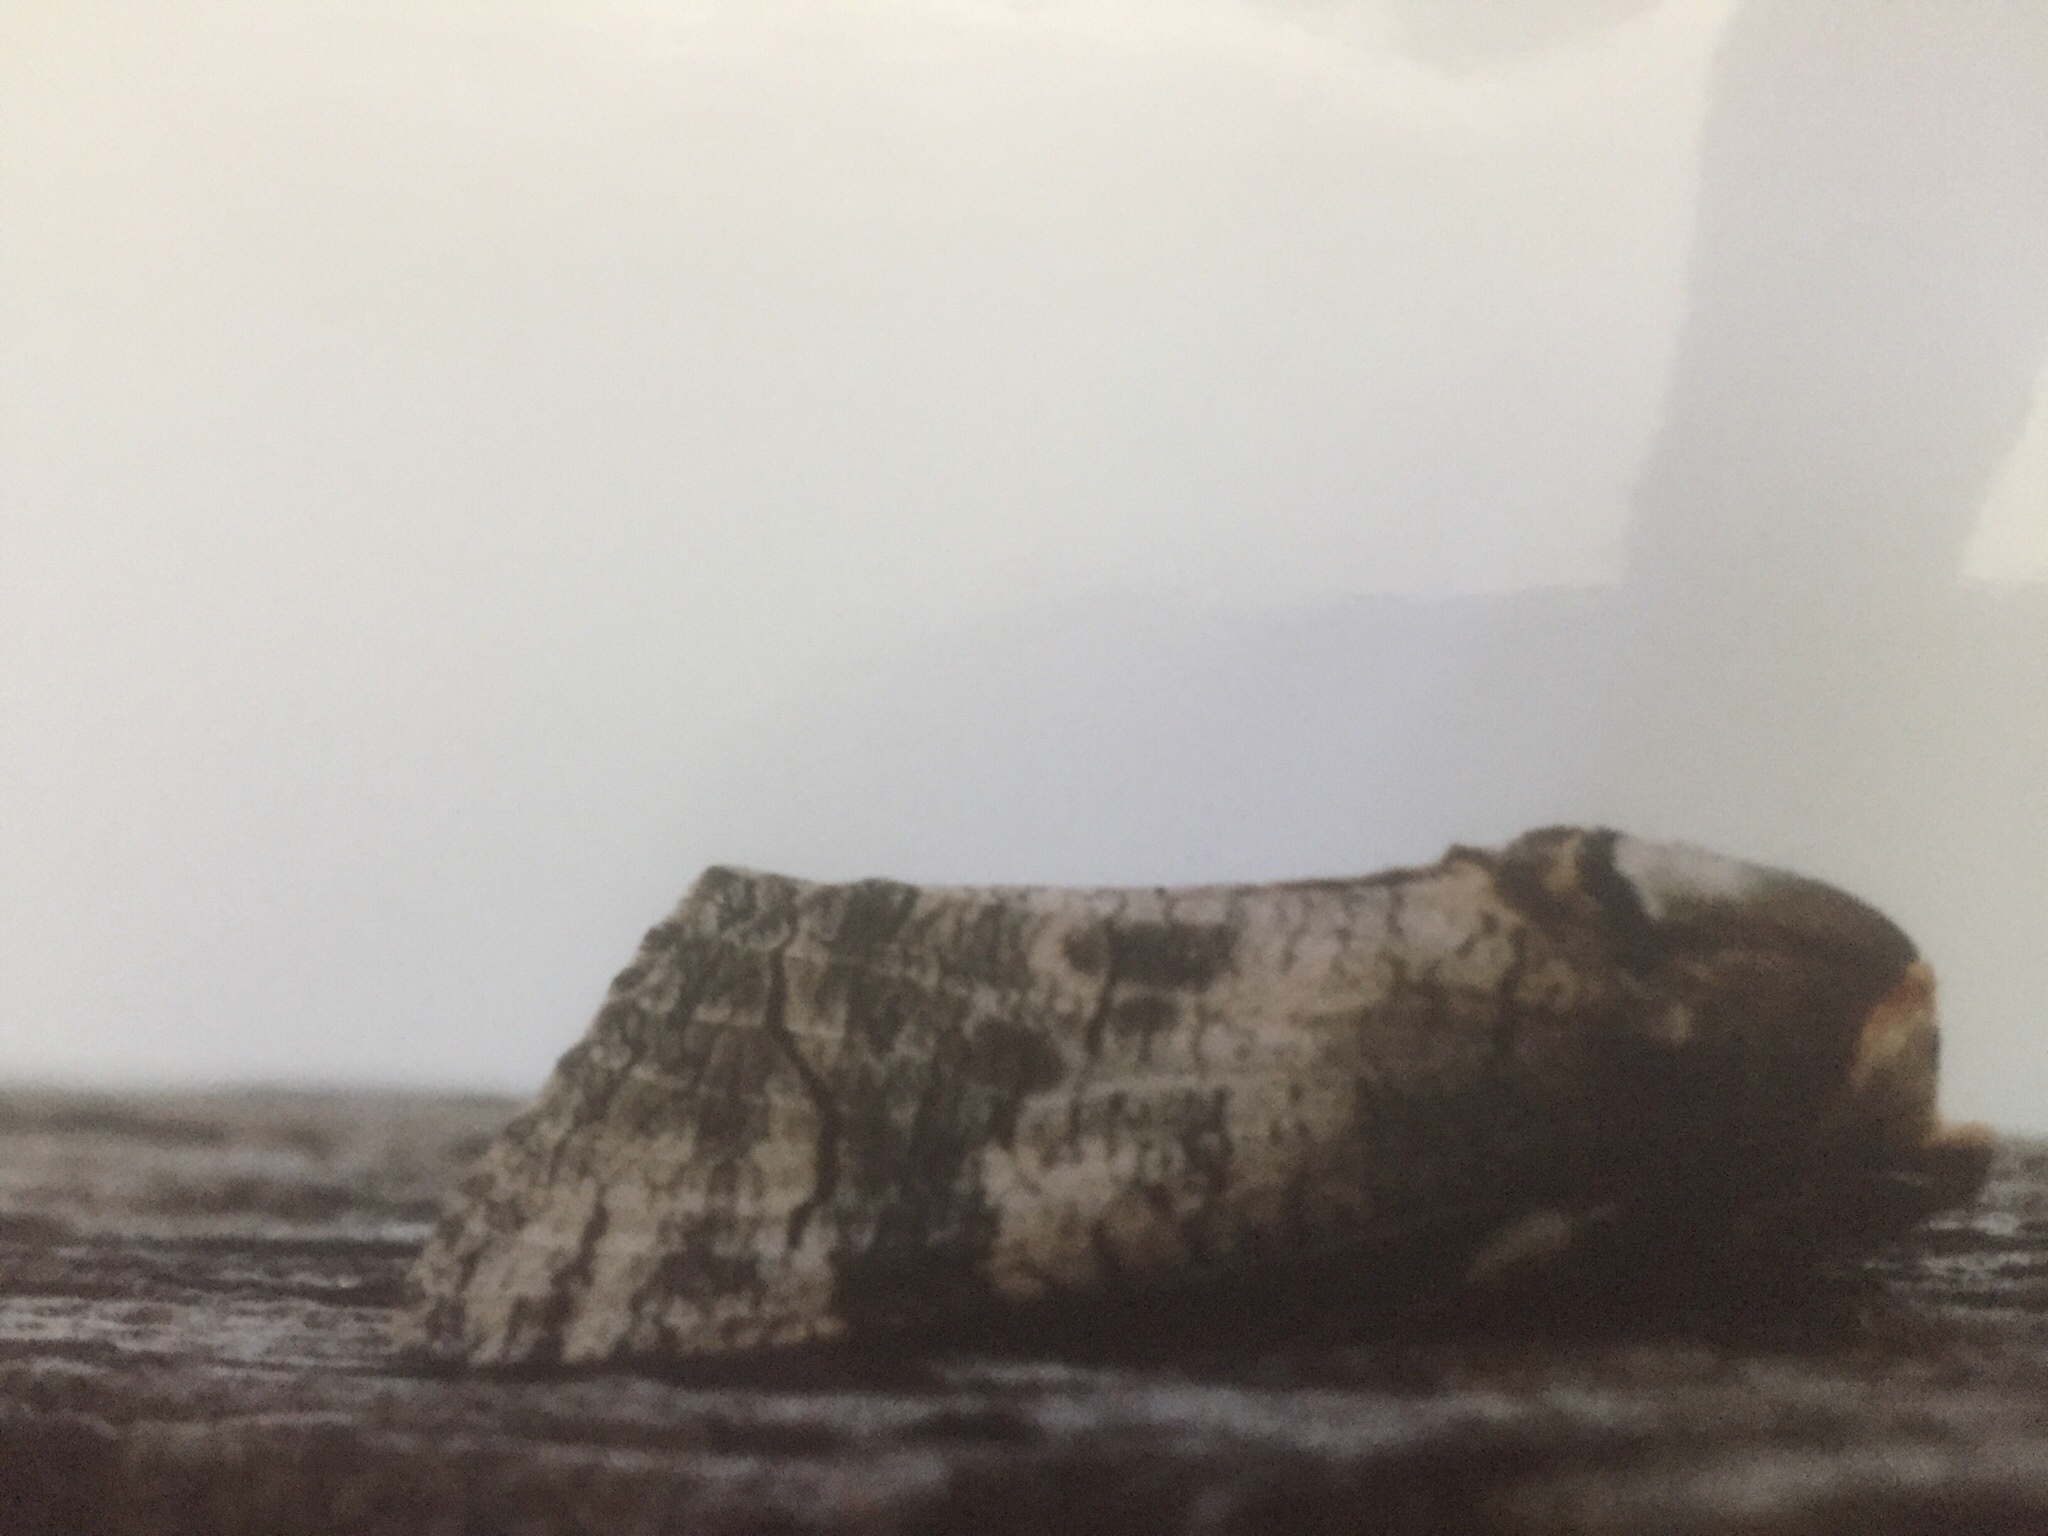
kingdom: Animalia
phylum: Arthropoda
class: Insecta
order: Lepidoptera
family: Cossidae
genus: Cossus
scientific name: Cossus cossus
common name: Goat moth
